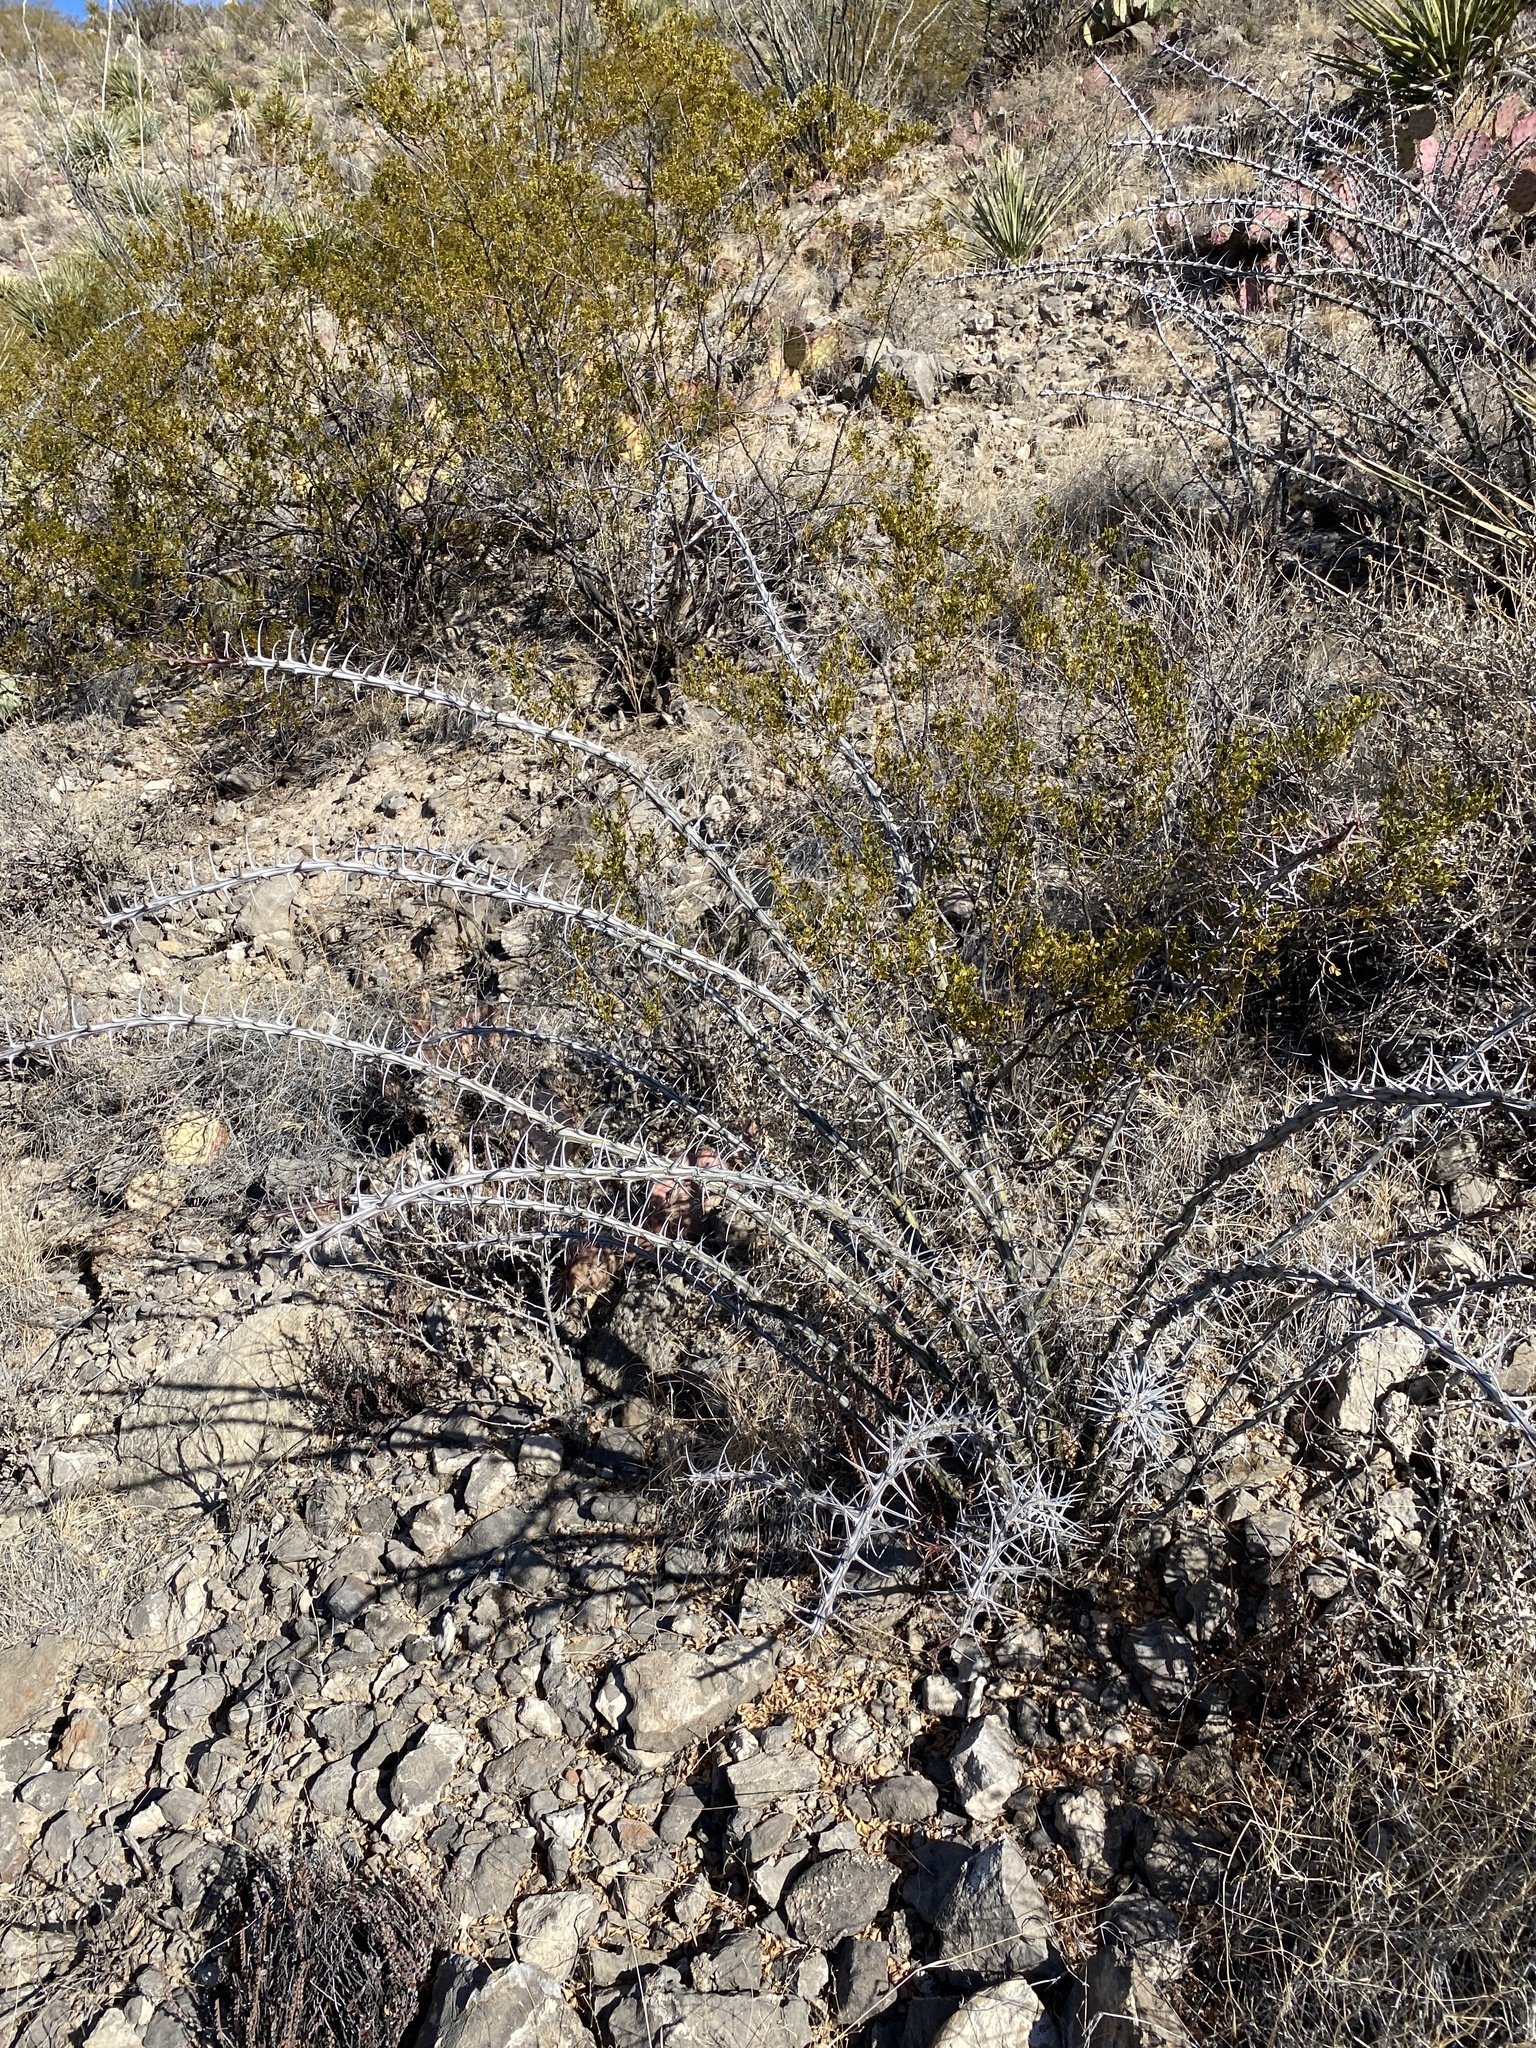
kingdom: Plantae
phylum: Tracheophyta
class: Magnoliopsida
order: Ericales
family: Fouquieriaceae
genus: Fouquieria
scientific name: Fouquieria splendens
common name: Vine-cactus
